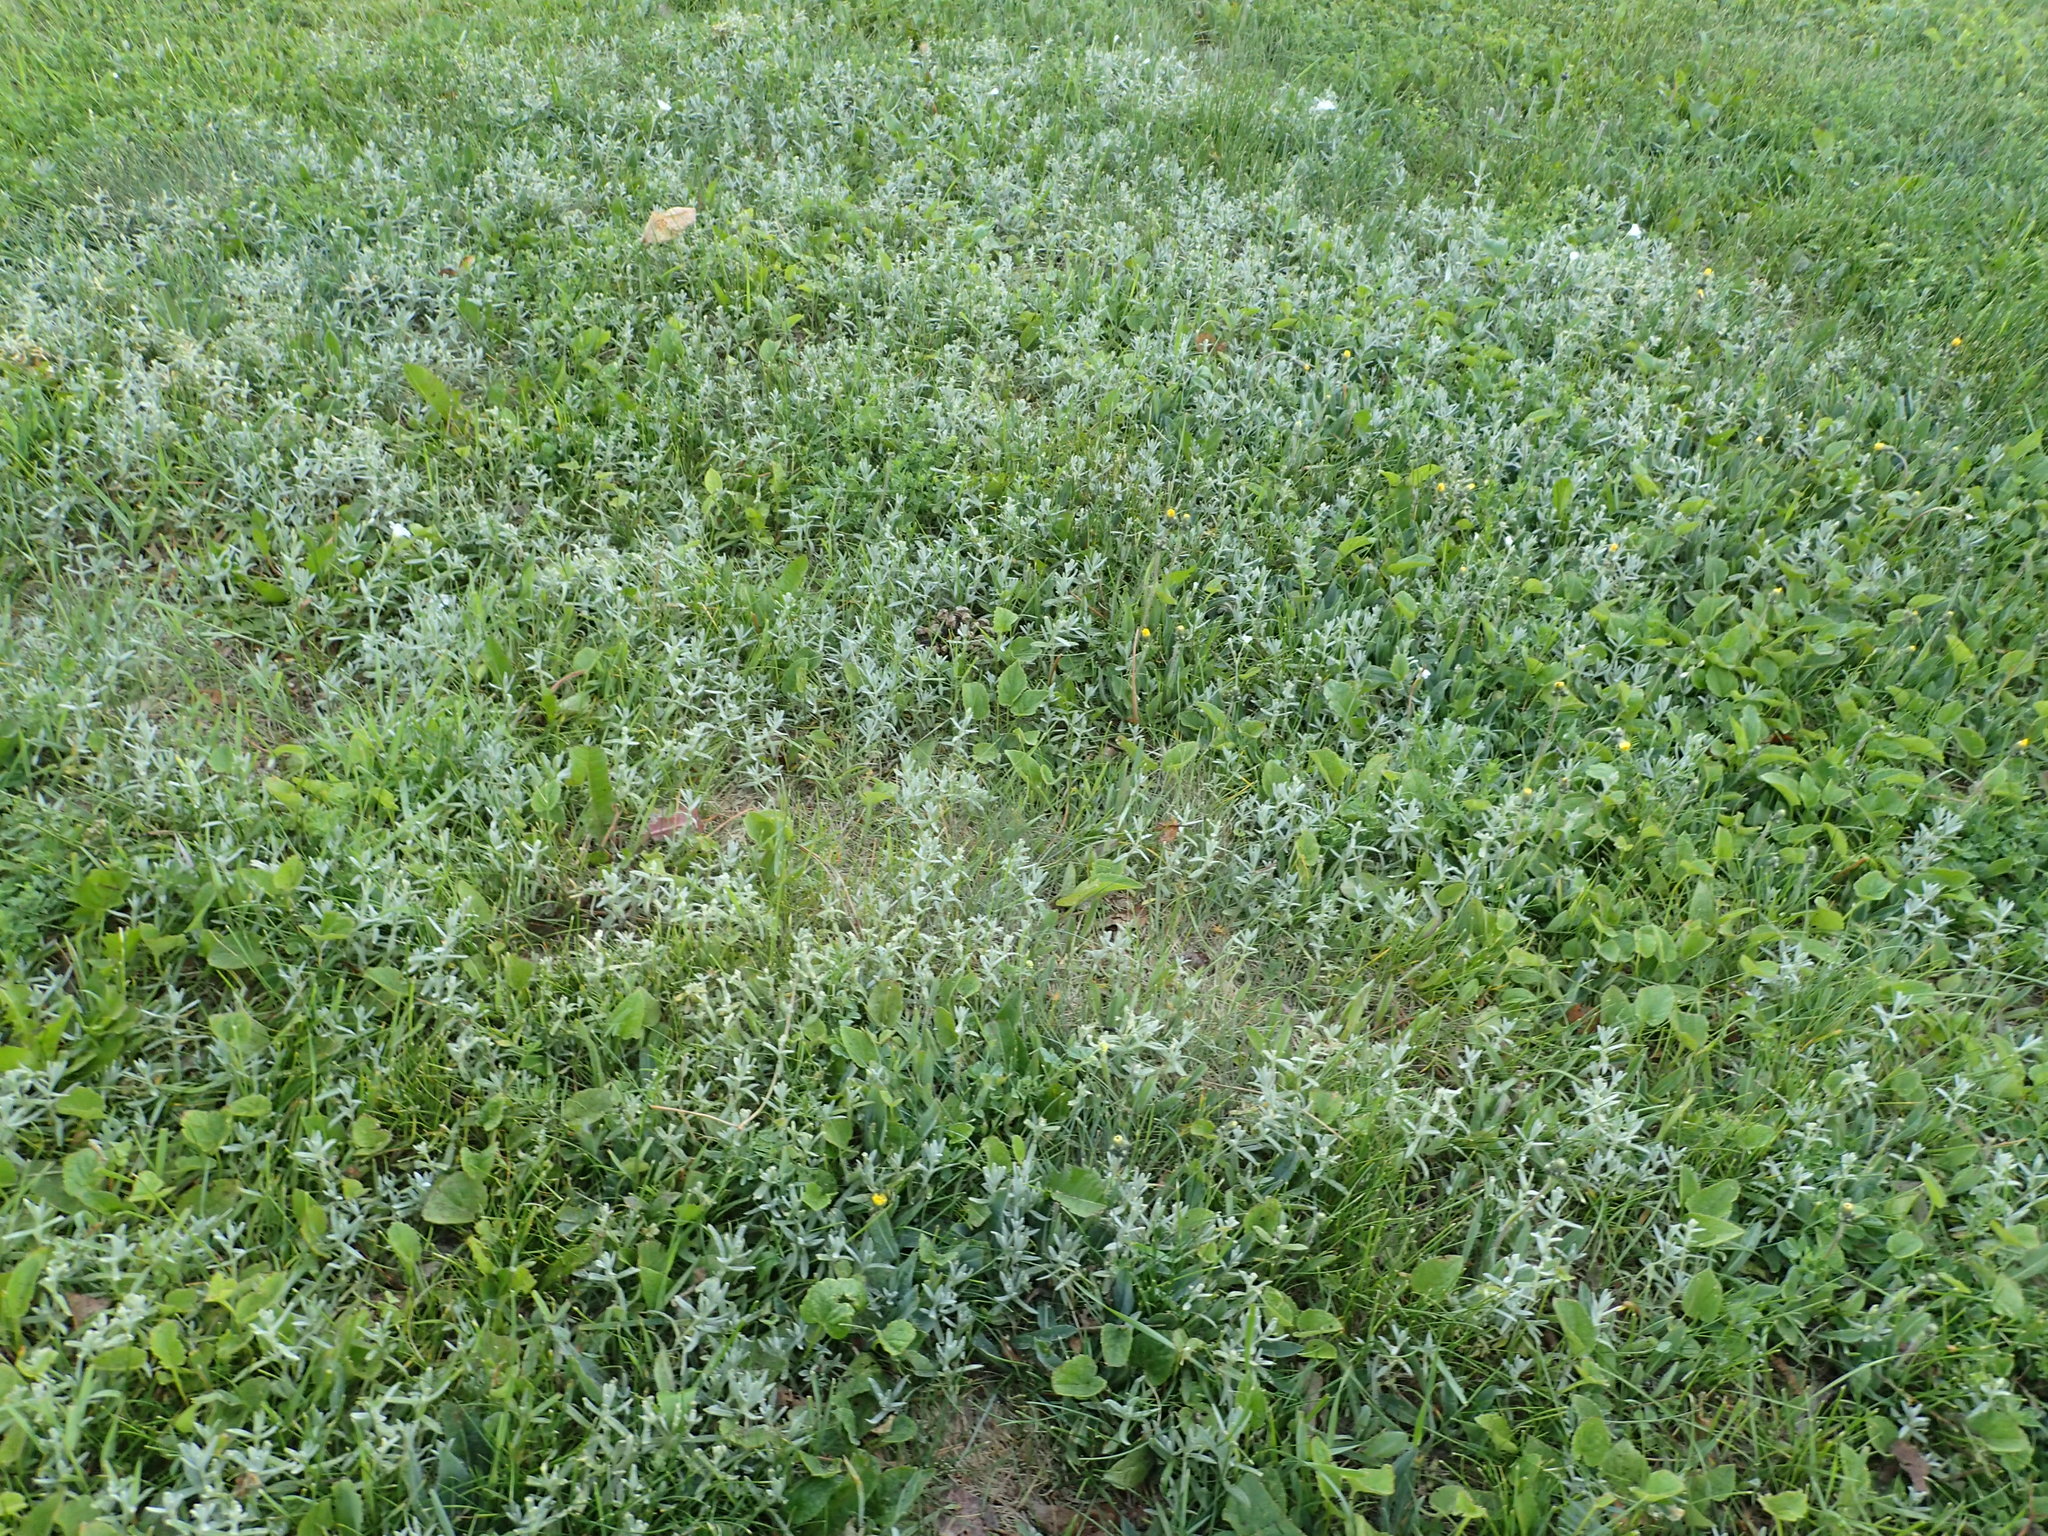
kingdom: Plantae
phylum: Tracheophyta
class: Magnoliopsida
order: Asterales
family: Asteraceae
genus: Gnaphalium
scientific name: Gnaphalium uliginosum
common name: Marsh cudweed
